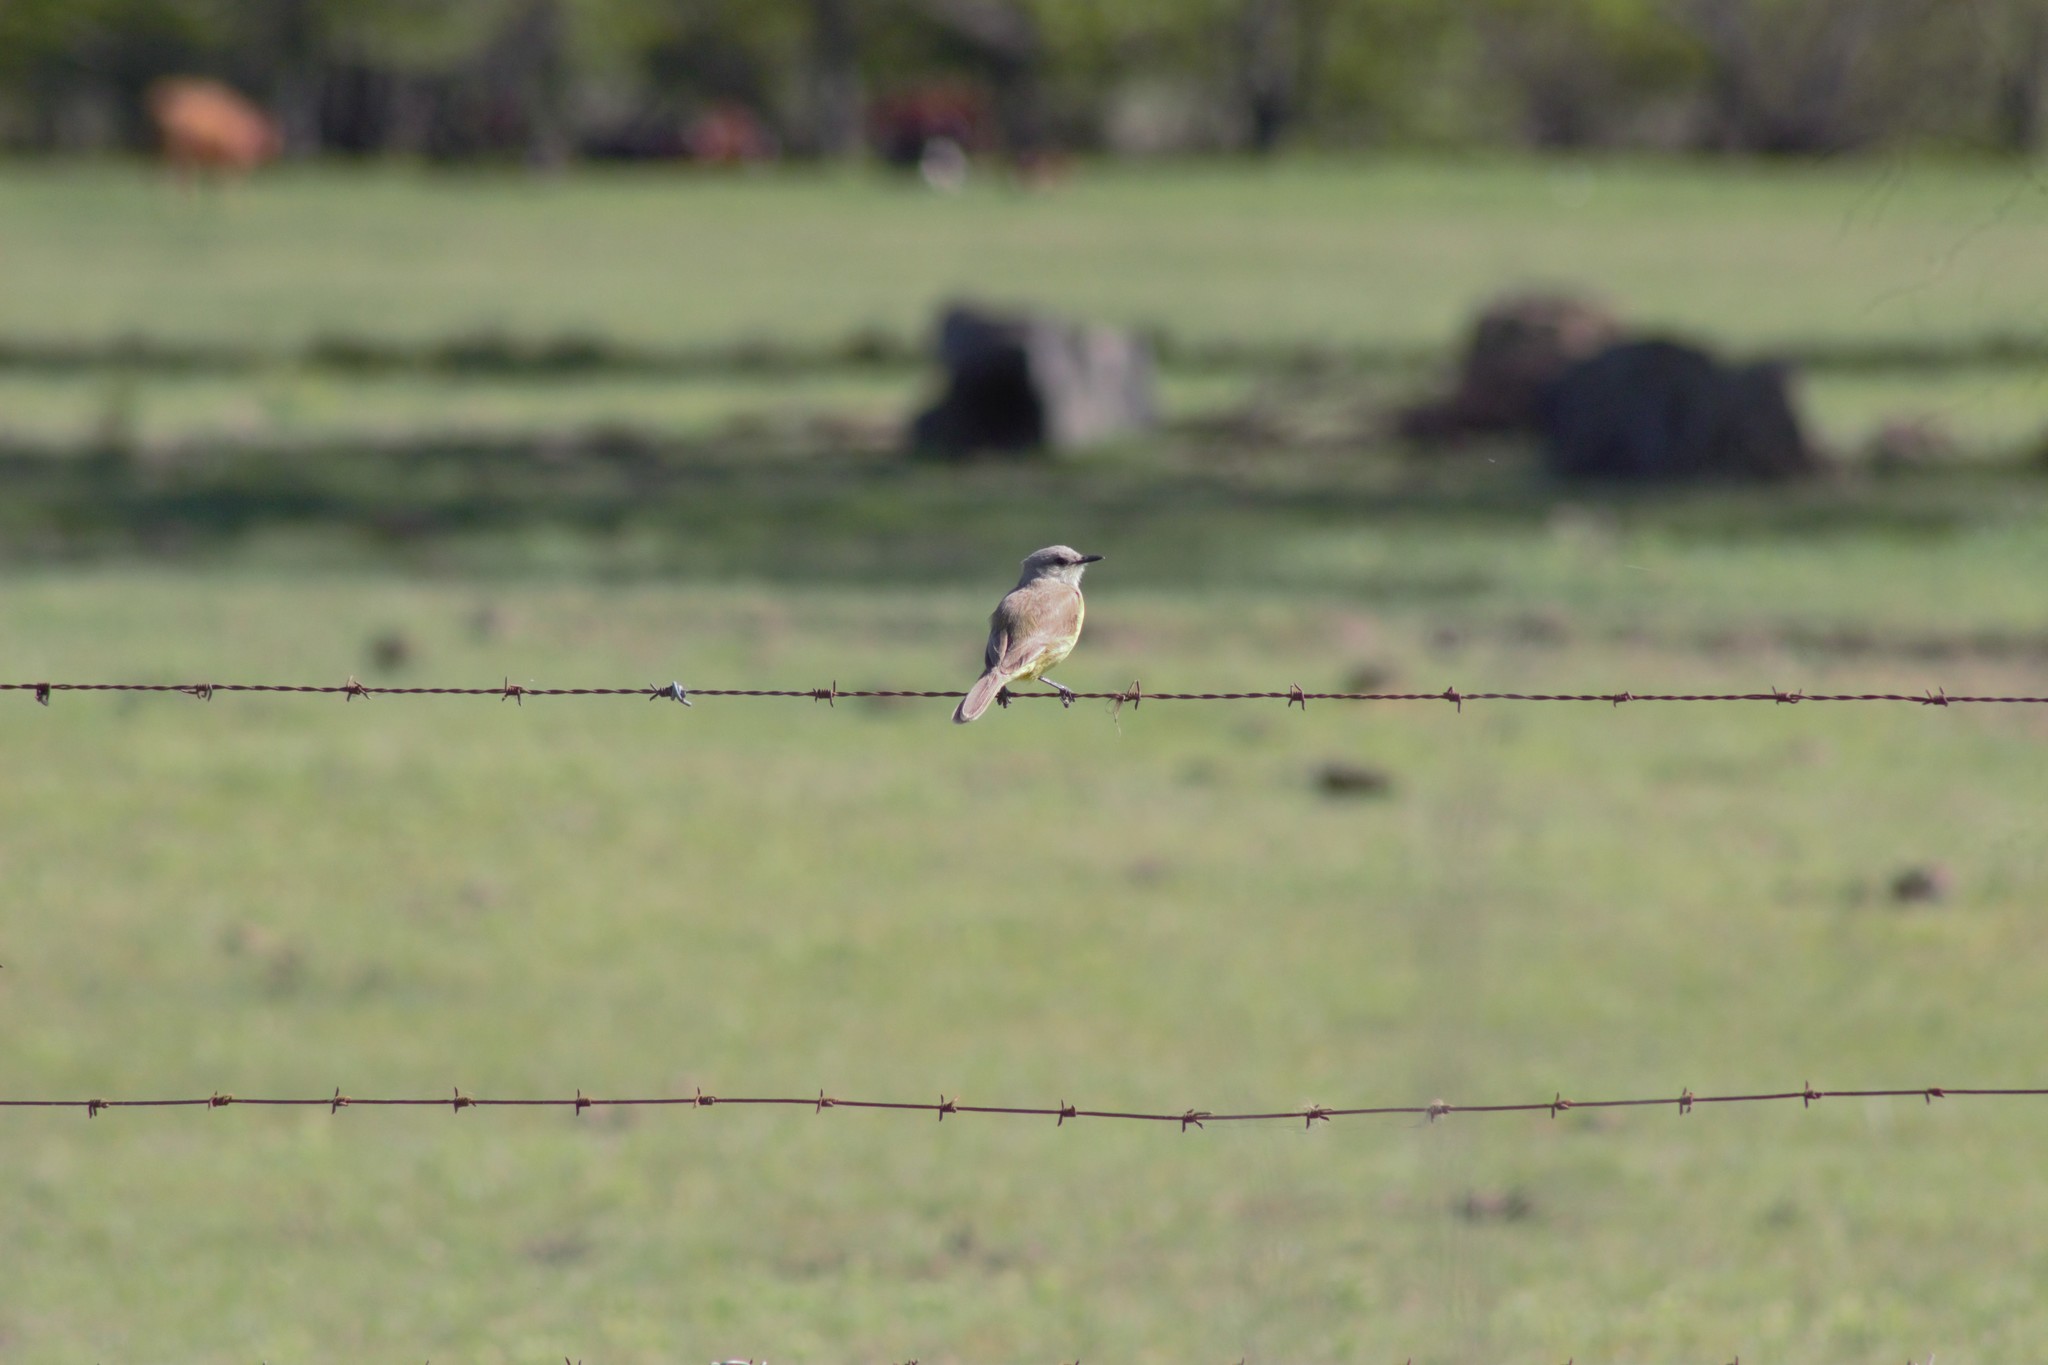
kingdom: Animalia
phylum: Chordata
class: Aves
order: Passeriformes
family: Tyrannidae
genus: Machetornis
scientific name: Machetornis rixosa
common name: Cattle tyrant
